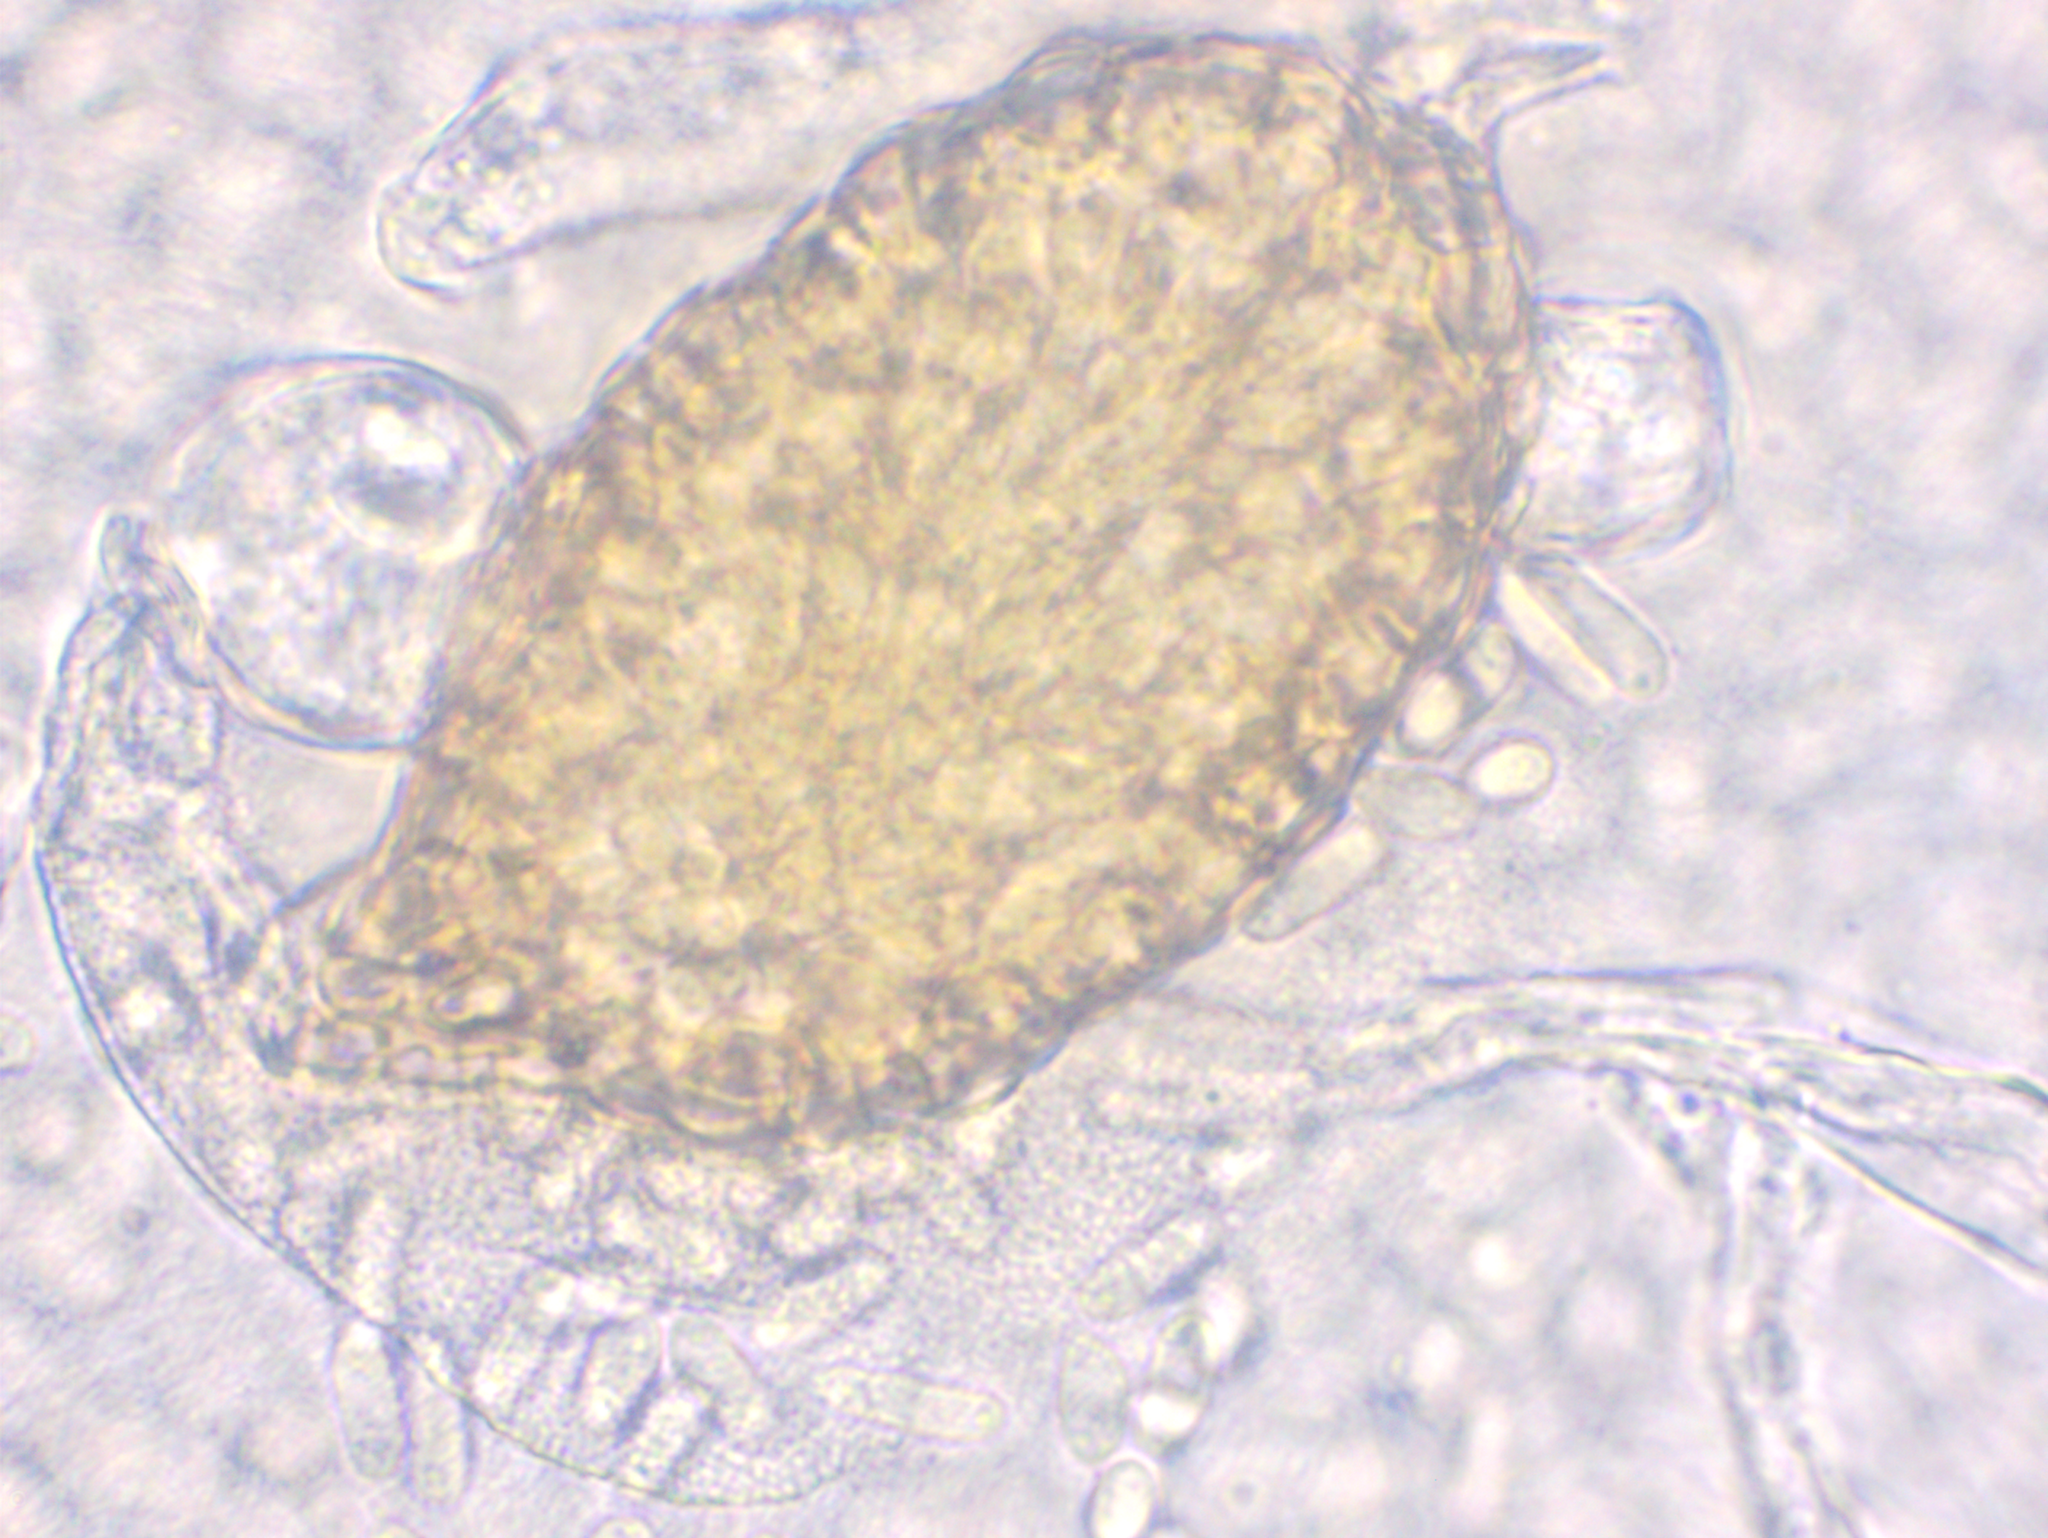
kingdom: Fungi
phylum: Ascomycota
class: Dothideomycetes
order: Pleosporales
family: Phaeosphaeriaceae
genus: Ampelomyces
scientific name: Ampelomyces quisqualis
